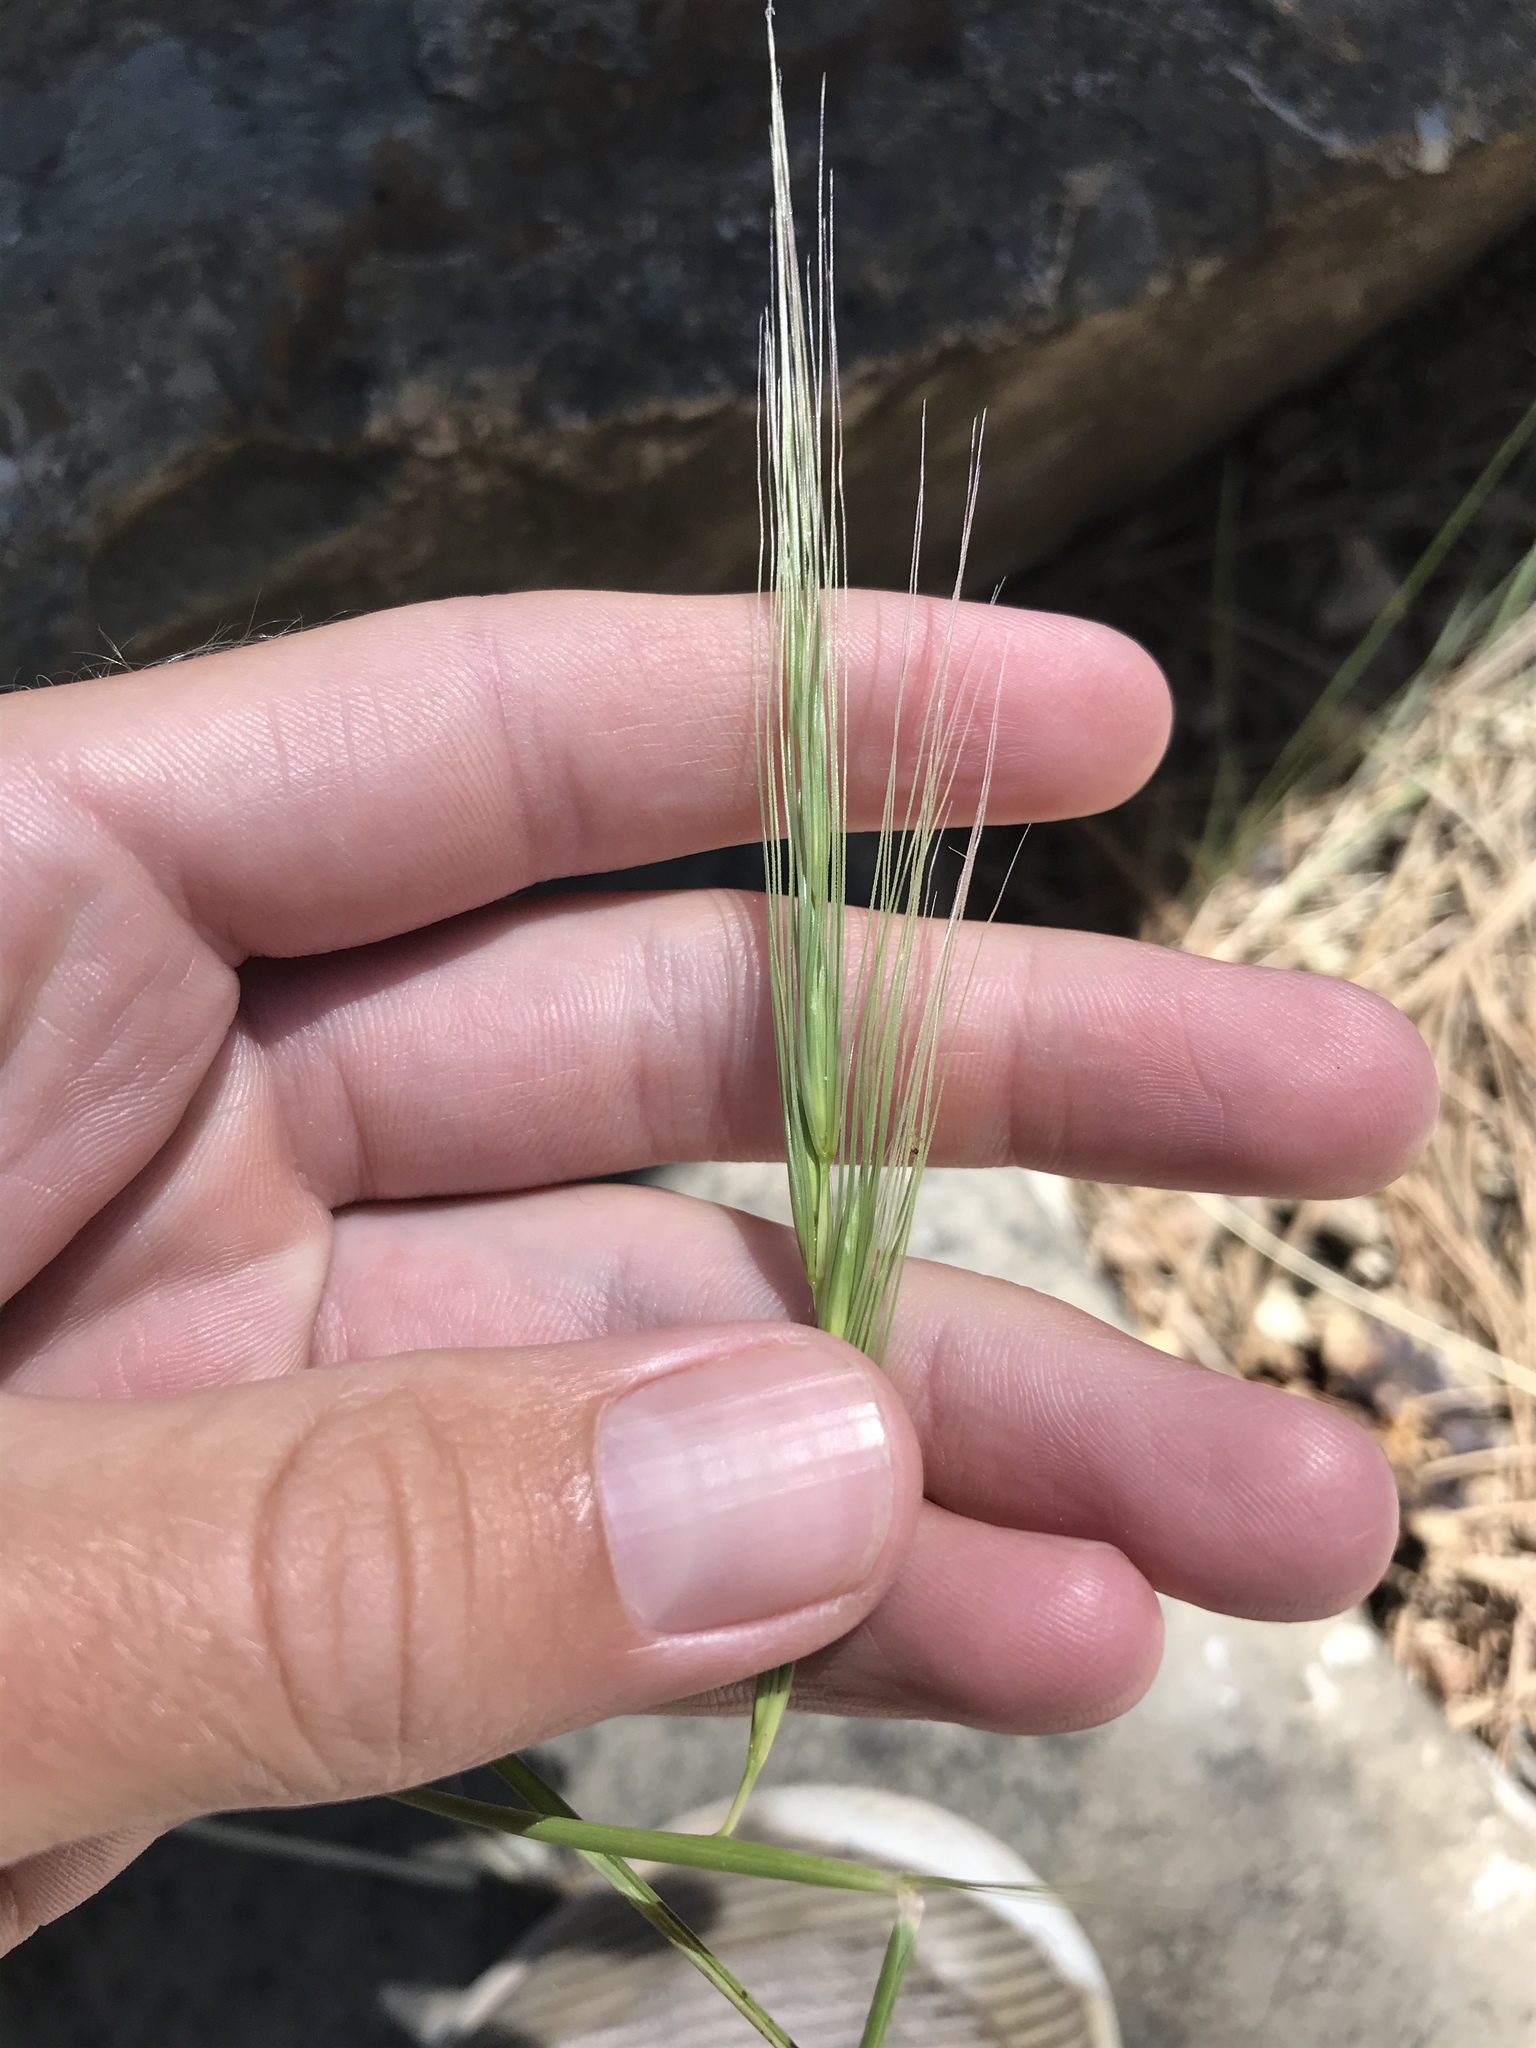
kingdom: Plantae
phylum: Tracheophyta
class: Liliopsida
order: Poales
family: Poaceae
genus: Elymus
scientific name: Elymus elymoides
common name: Bottlebrush squirreltail
